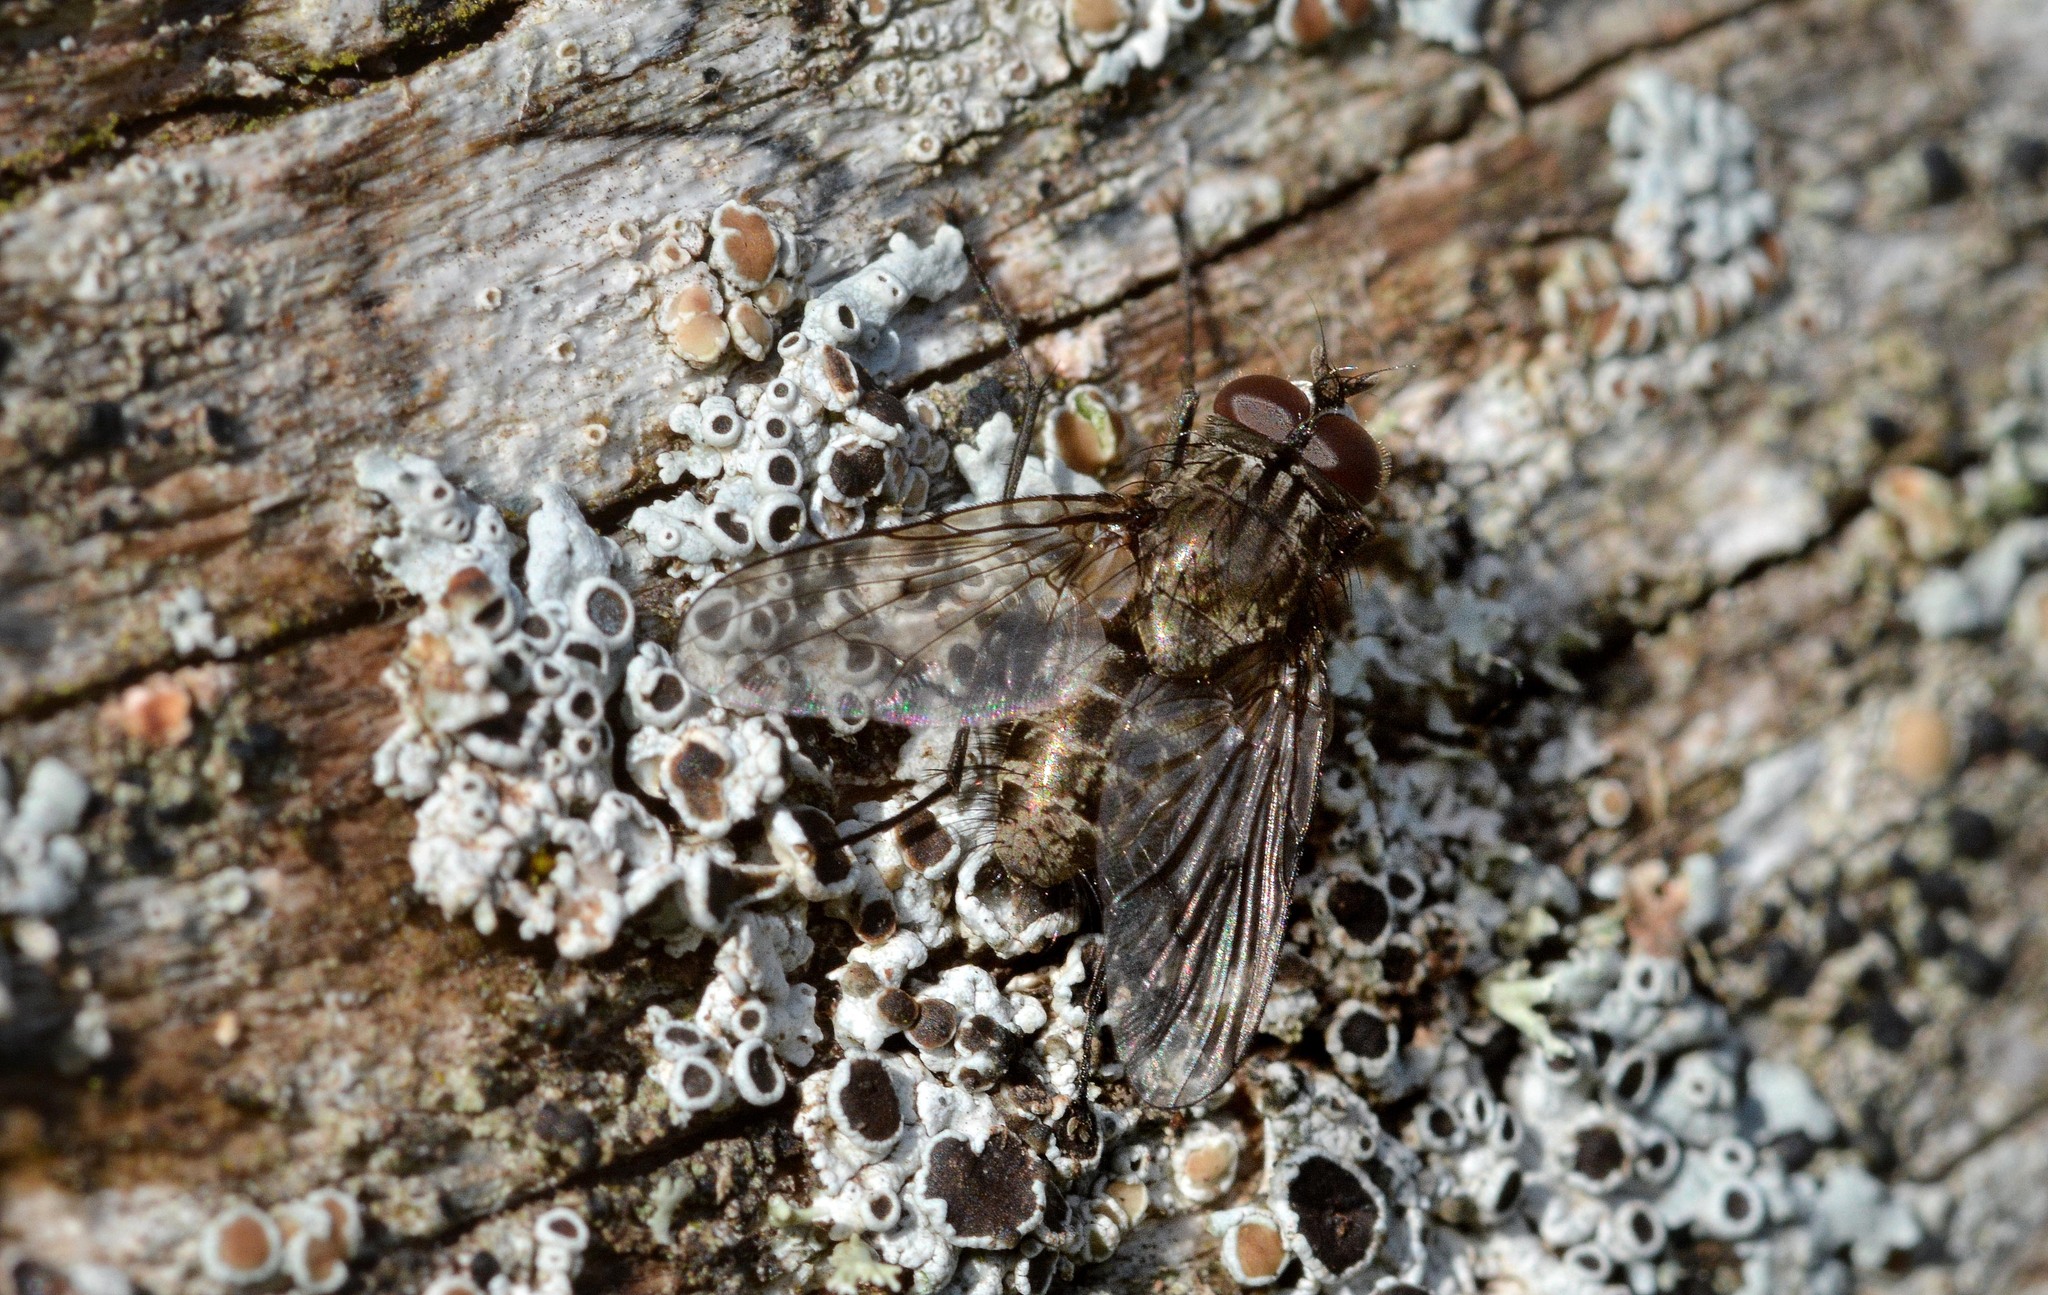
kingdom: Animalia
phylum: Arthropoda
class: Insecta
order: Diptera
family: Muscidae
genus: Helina
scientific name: Helina evecta
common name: Muscid fly
